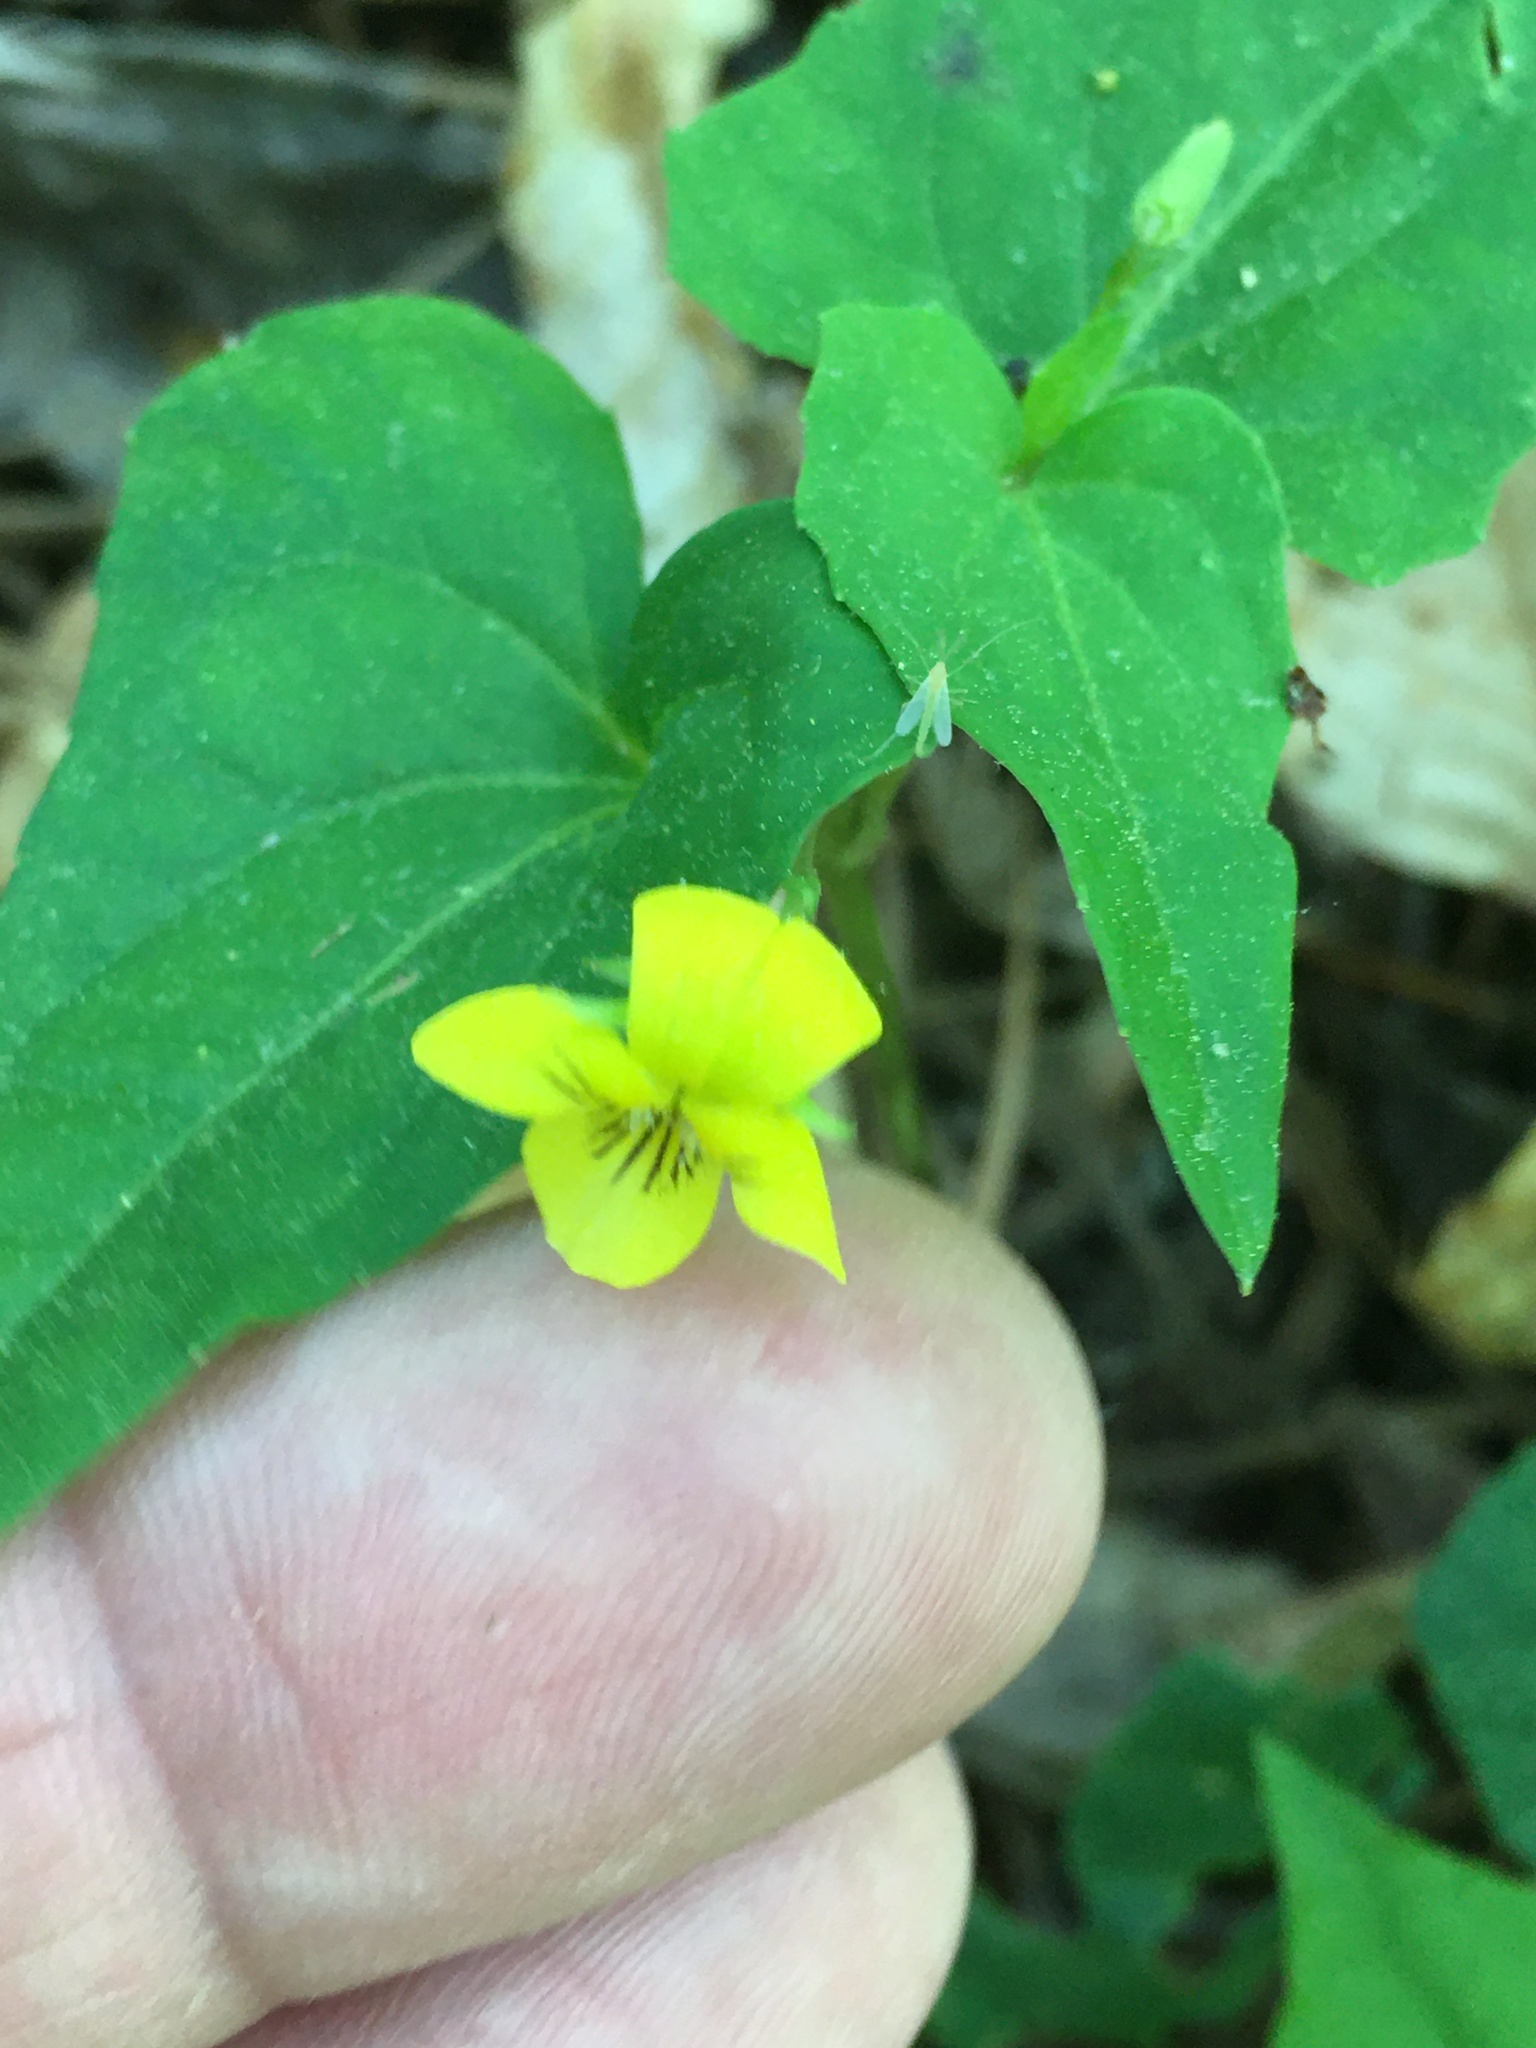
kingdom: Plantae
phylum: Tracheophyta
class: Magnoliopsida
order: Malpighiales
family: Violaceae
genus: Viola
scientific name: Viola hastata
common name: Spear-leaf violet
